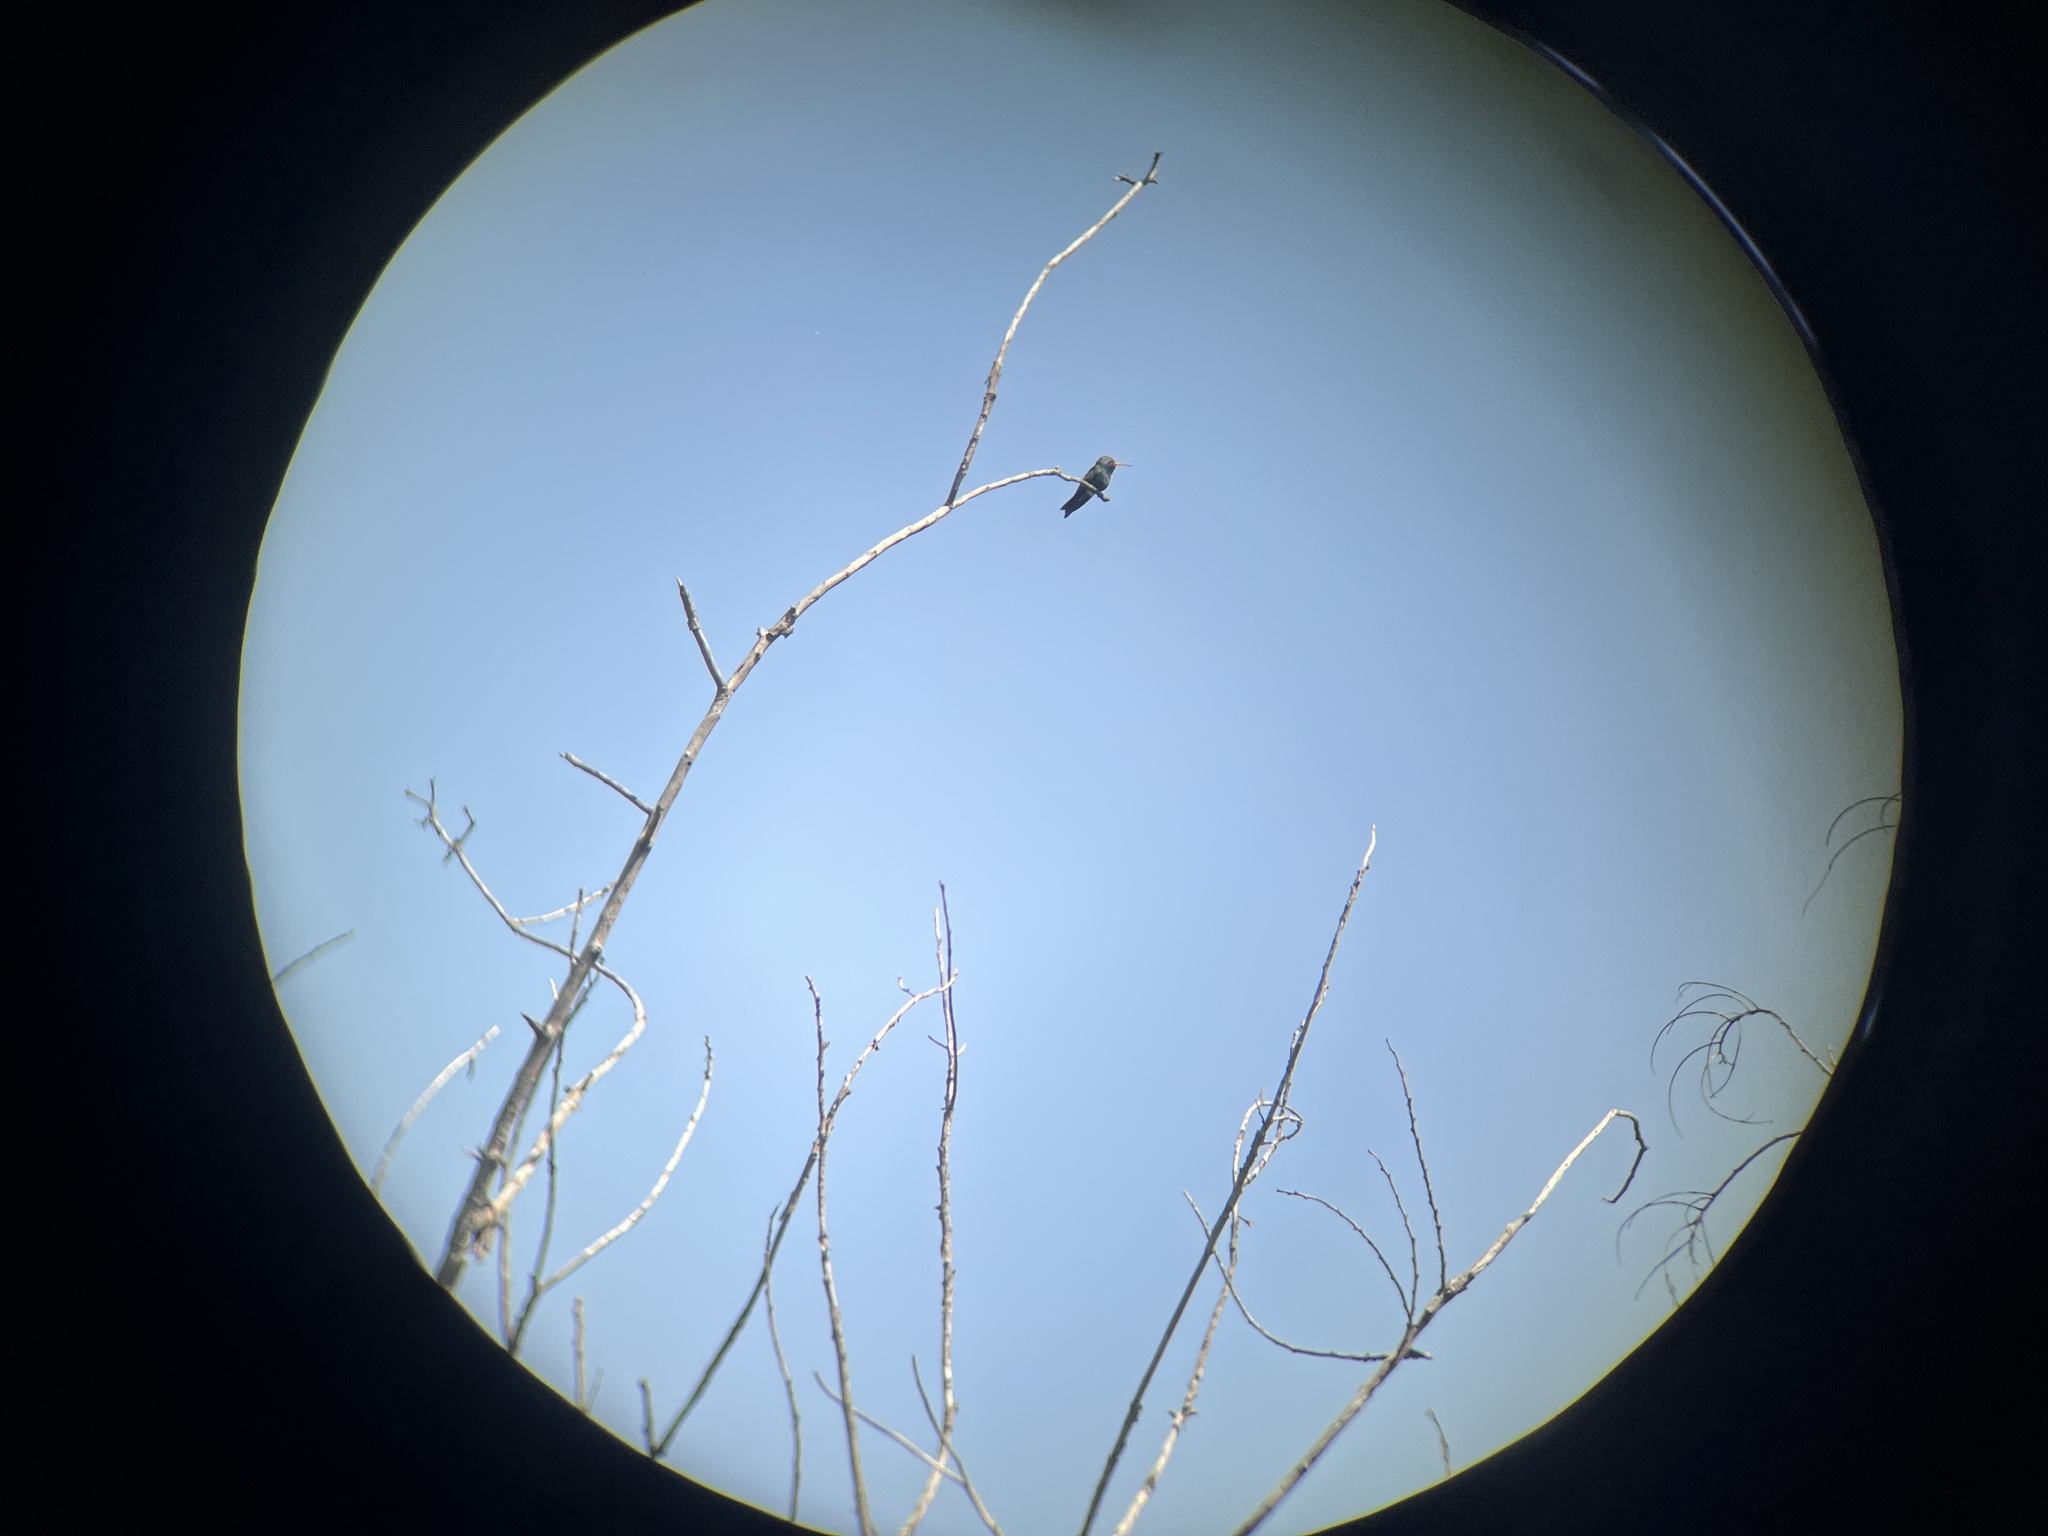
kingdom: Animalia
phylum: Chordata
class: Aves
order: Apodiformes
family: Trochilidae
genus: Cynanthus
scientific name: Cynanthus latirostris
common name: Broad-billed hummingbird
